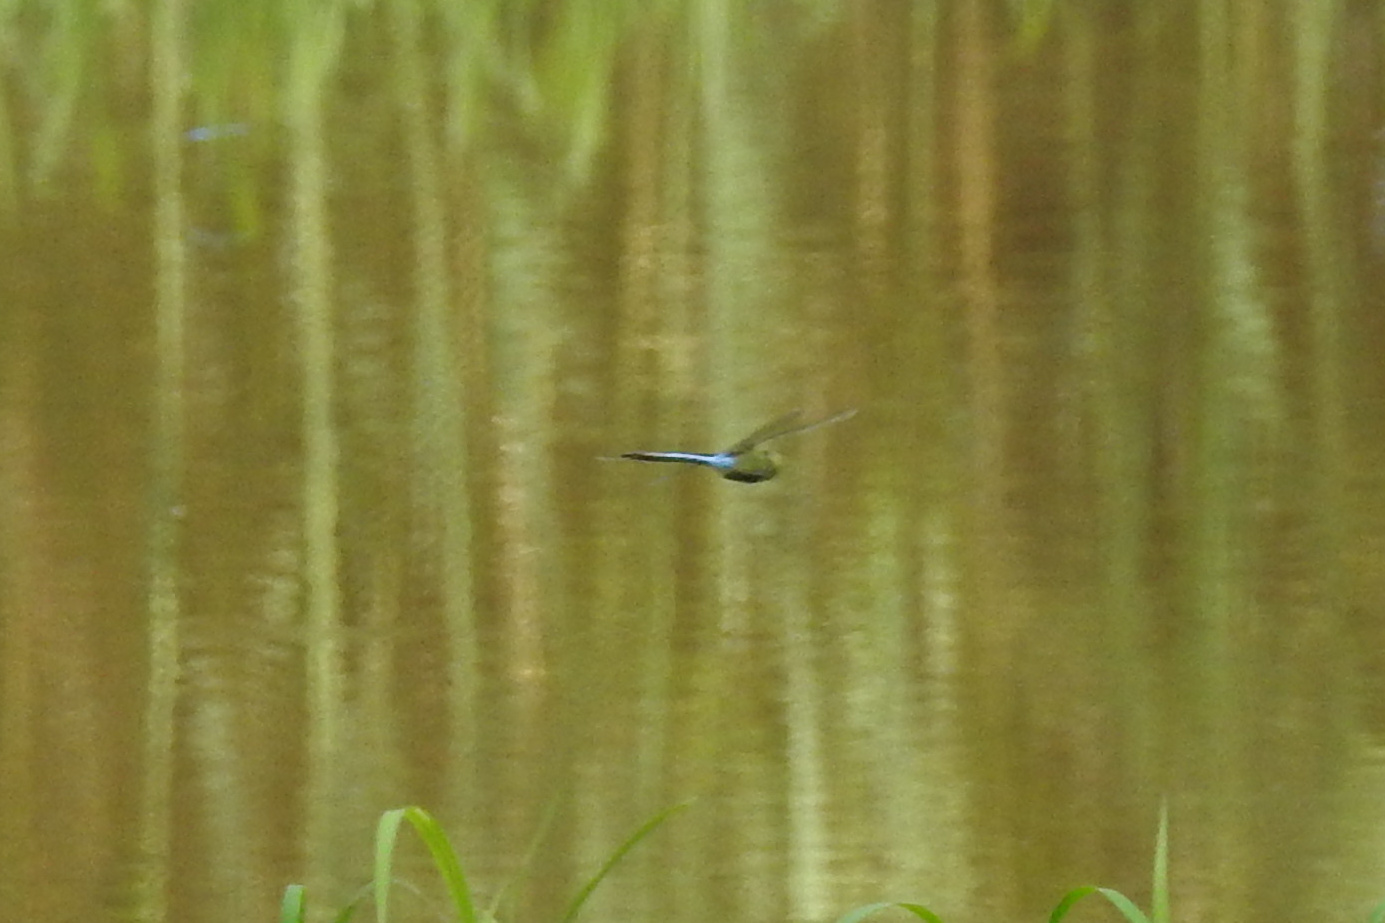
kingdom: Animalia
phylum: Arthropoda
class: Insecta
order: Odonata
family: Aeshnidae
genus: Anax
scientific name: Anax junius
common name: Common green darner
